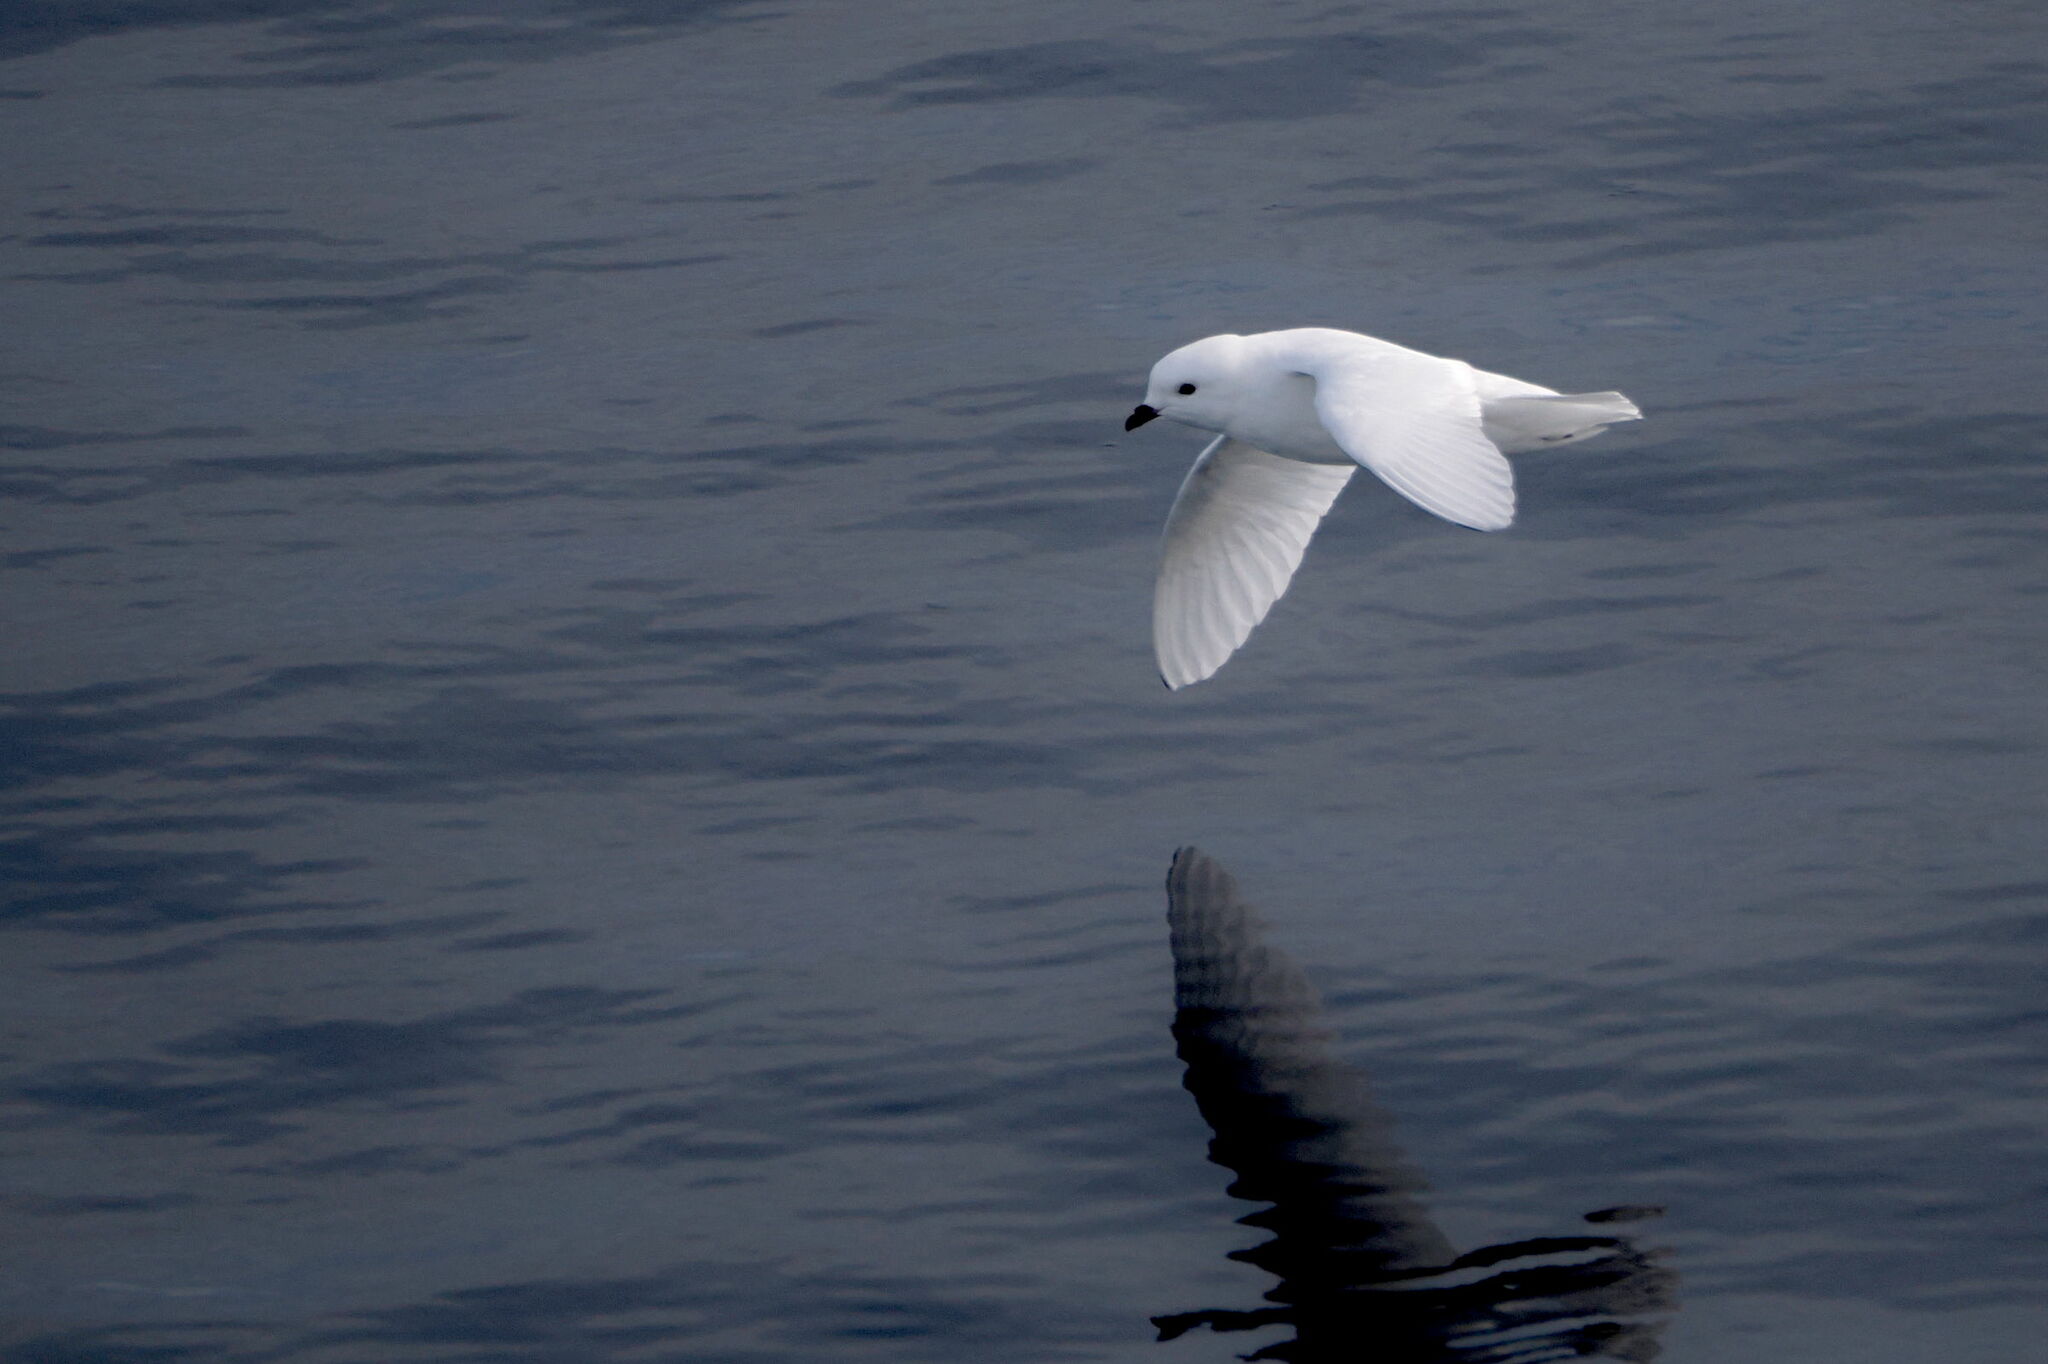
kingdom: Animalia
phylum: Chordata
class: Aves
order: Procellariiformes
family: Procellariidae
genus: Pagodroma
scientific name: Pagodroma nivea
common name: Snow petrel
